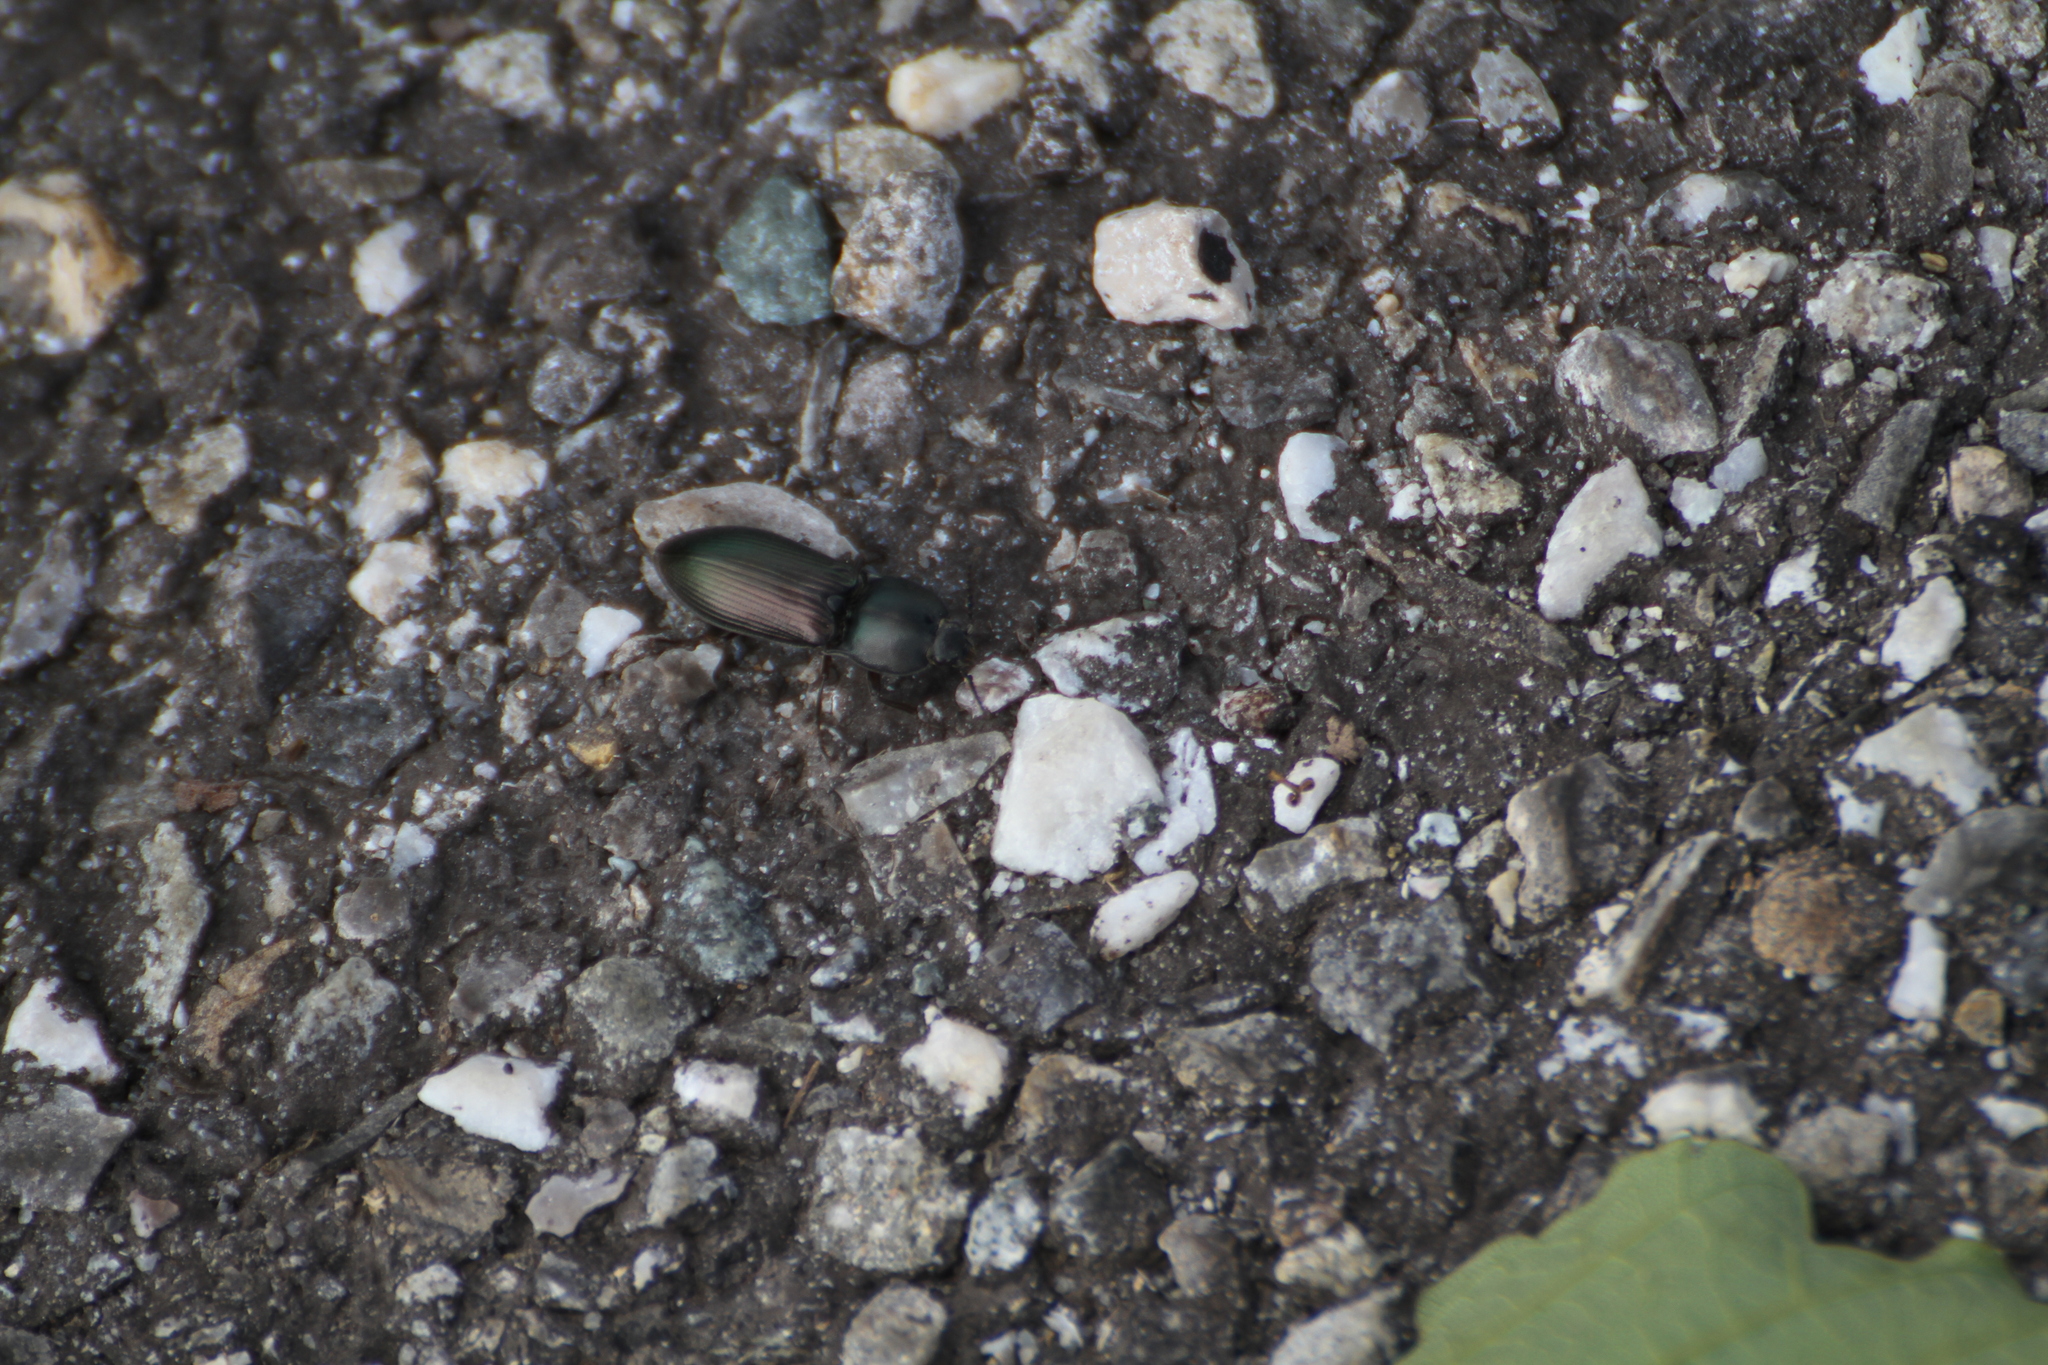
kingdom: Animalia
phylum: Arthropoda
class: Insecta
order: Coleoptera
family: Elateridae
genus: Selatosomus
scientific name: Selatosomus aeneus
